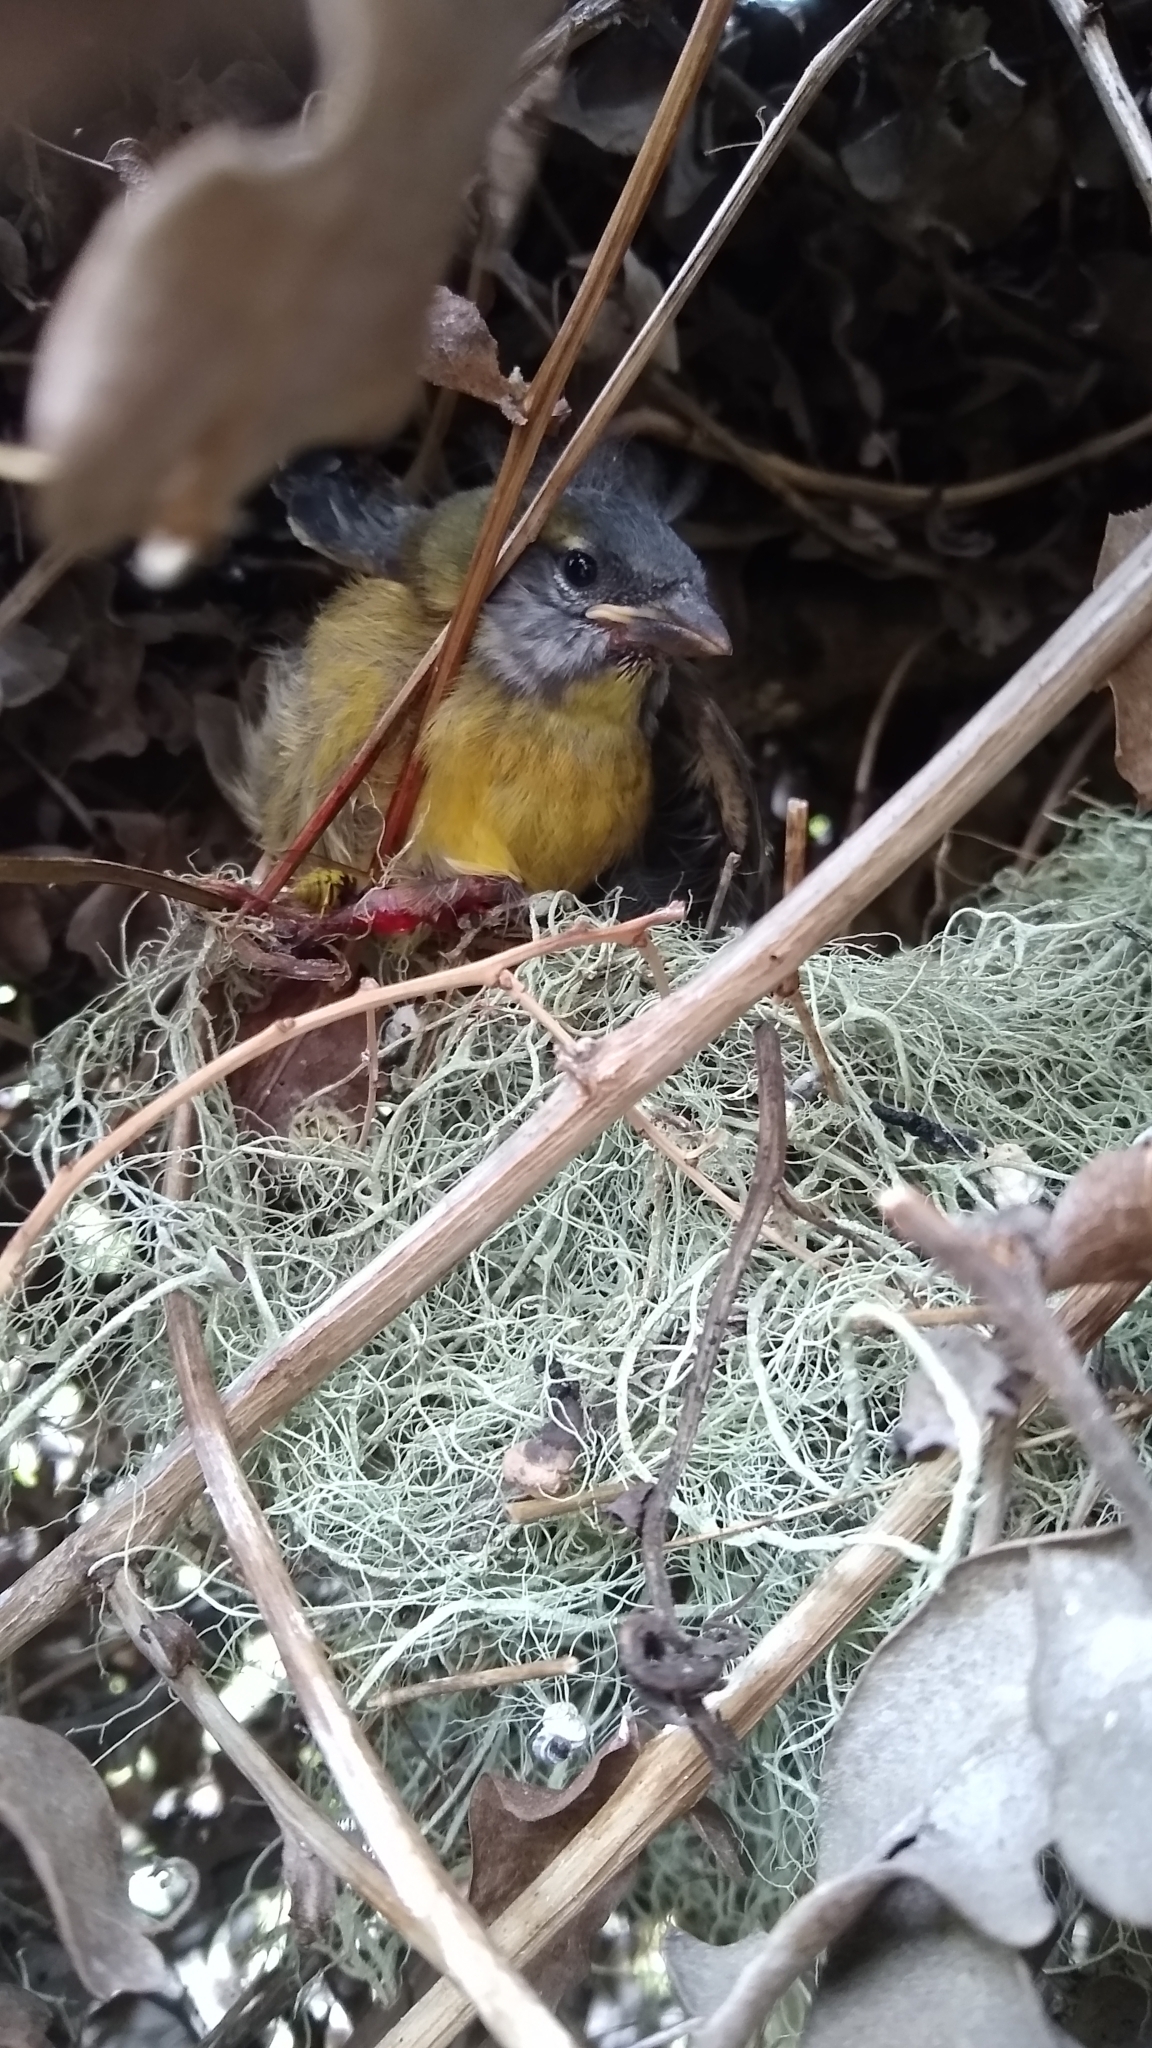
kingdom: Animalia
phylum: Chordata
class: Aves
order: Passeriformes
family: Thraupidae
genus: Phrygilus
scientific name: Phrygilus patagonicus
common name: Patagonian sierra finch
